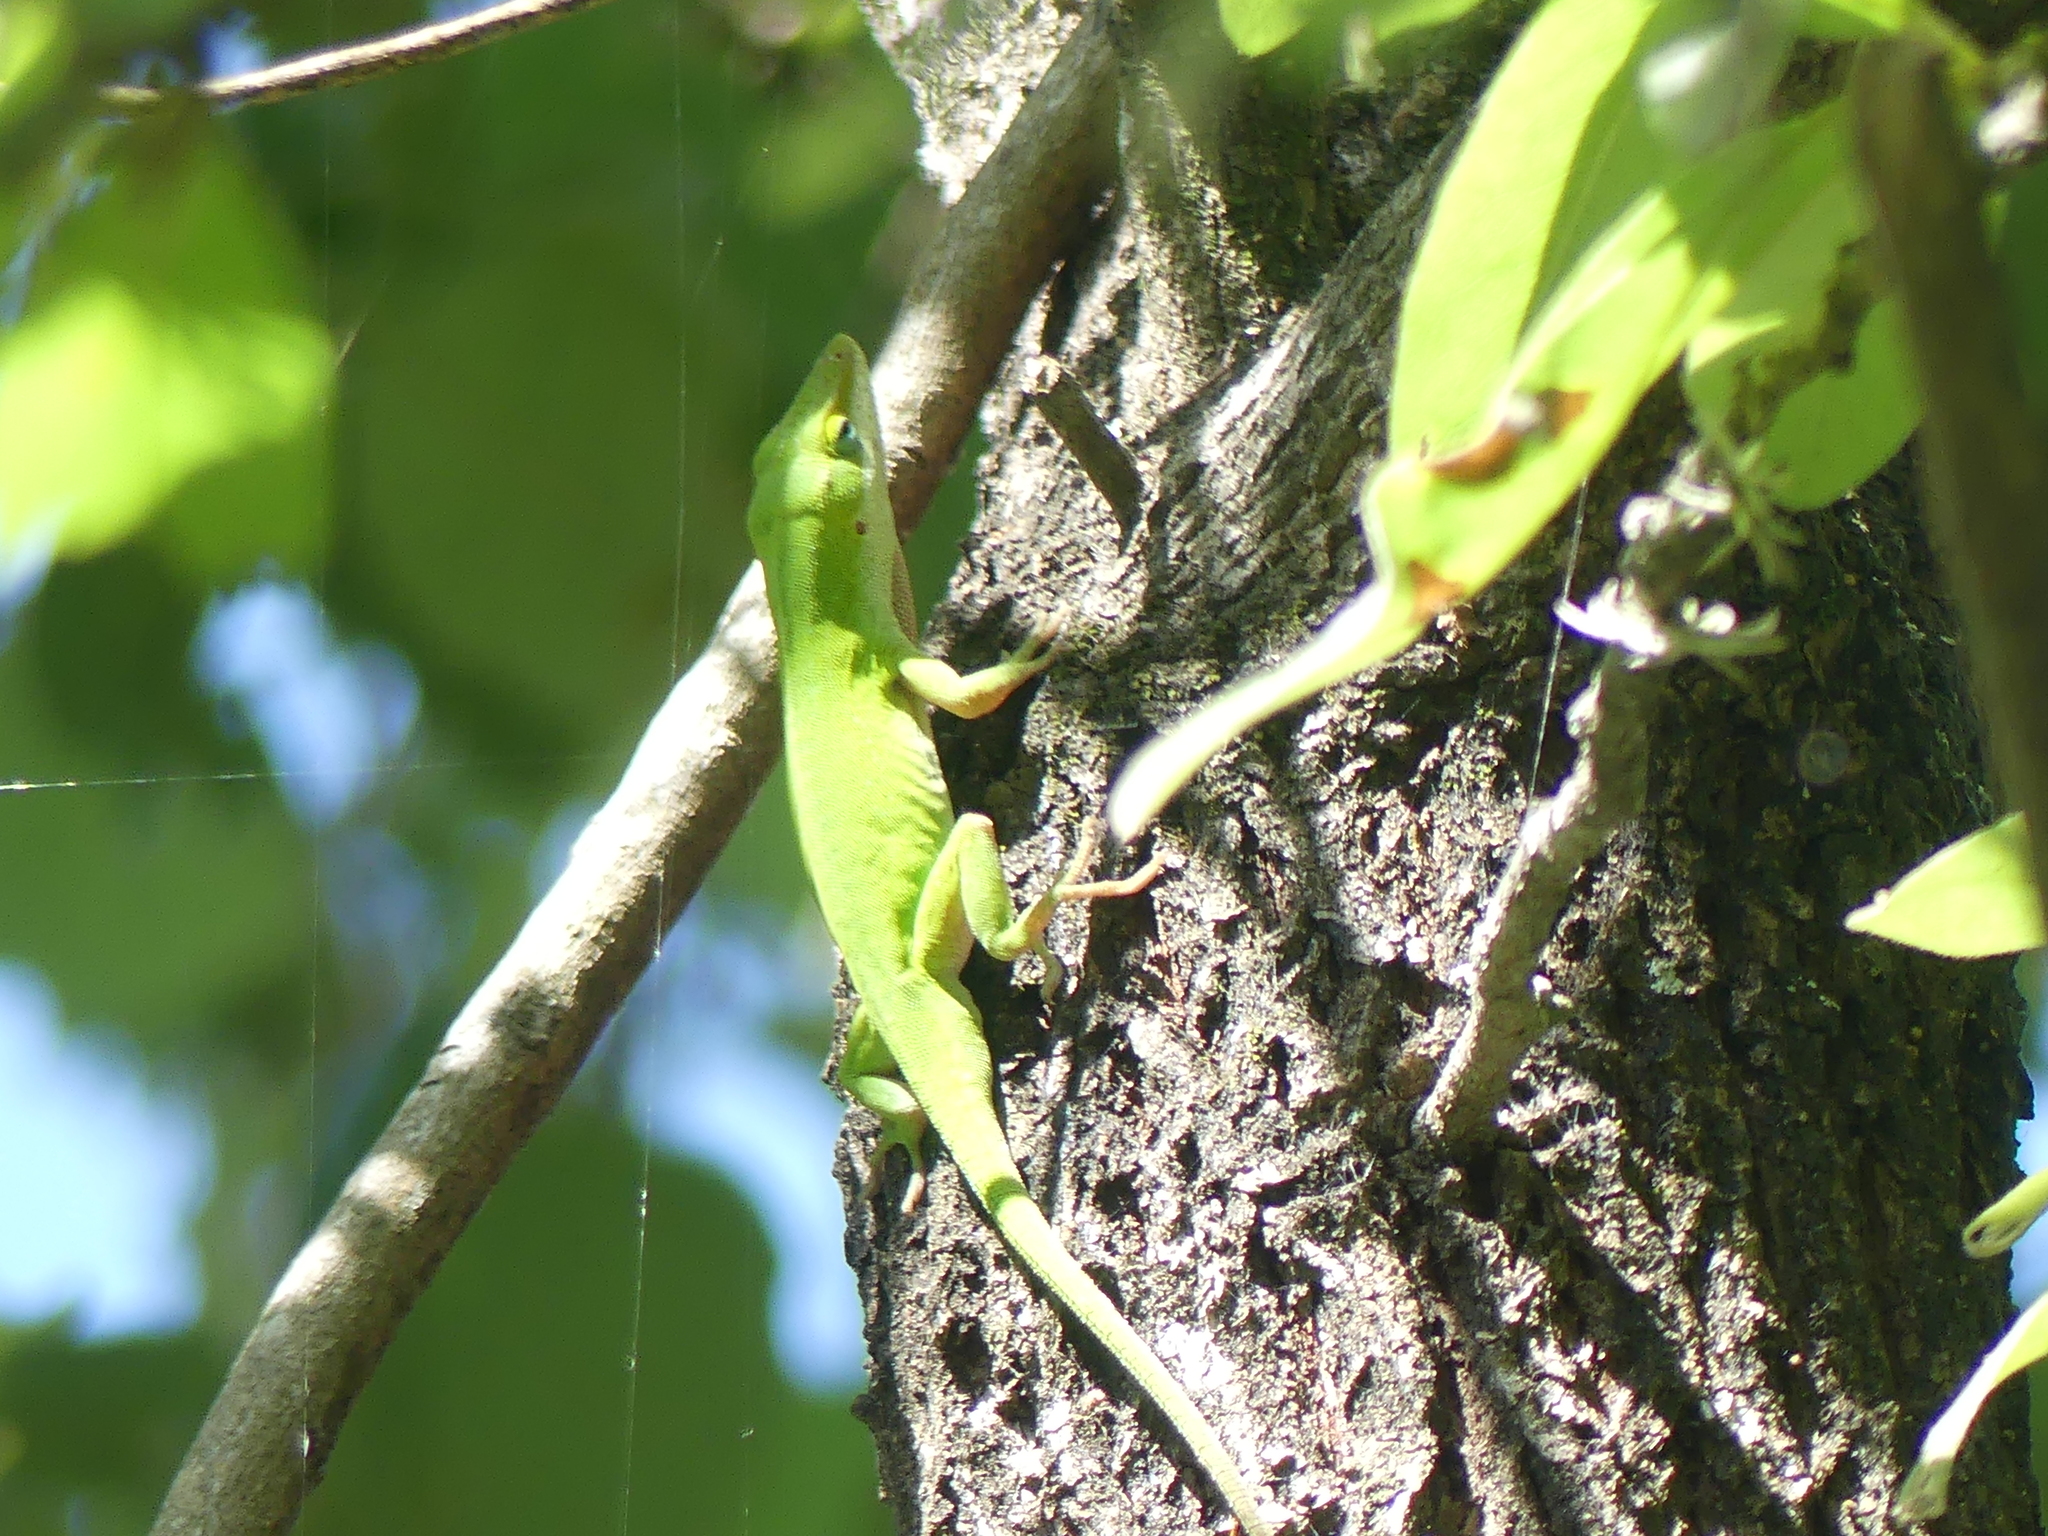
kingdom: Animalia
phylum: Chordata
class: Squamata
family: Dactyloidae
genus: Anolis
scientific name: Anolis carolinensis
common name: Green anole
